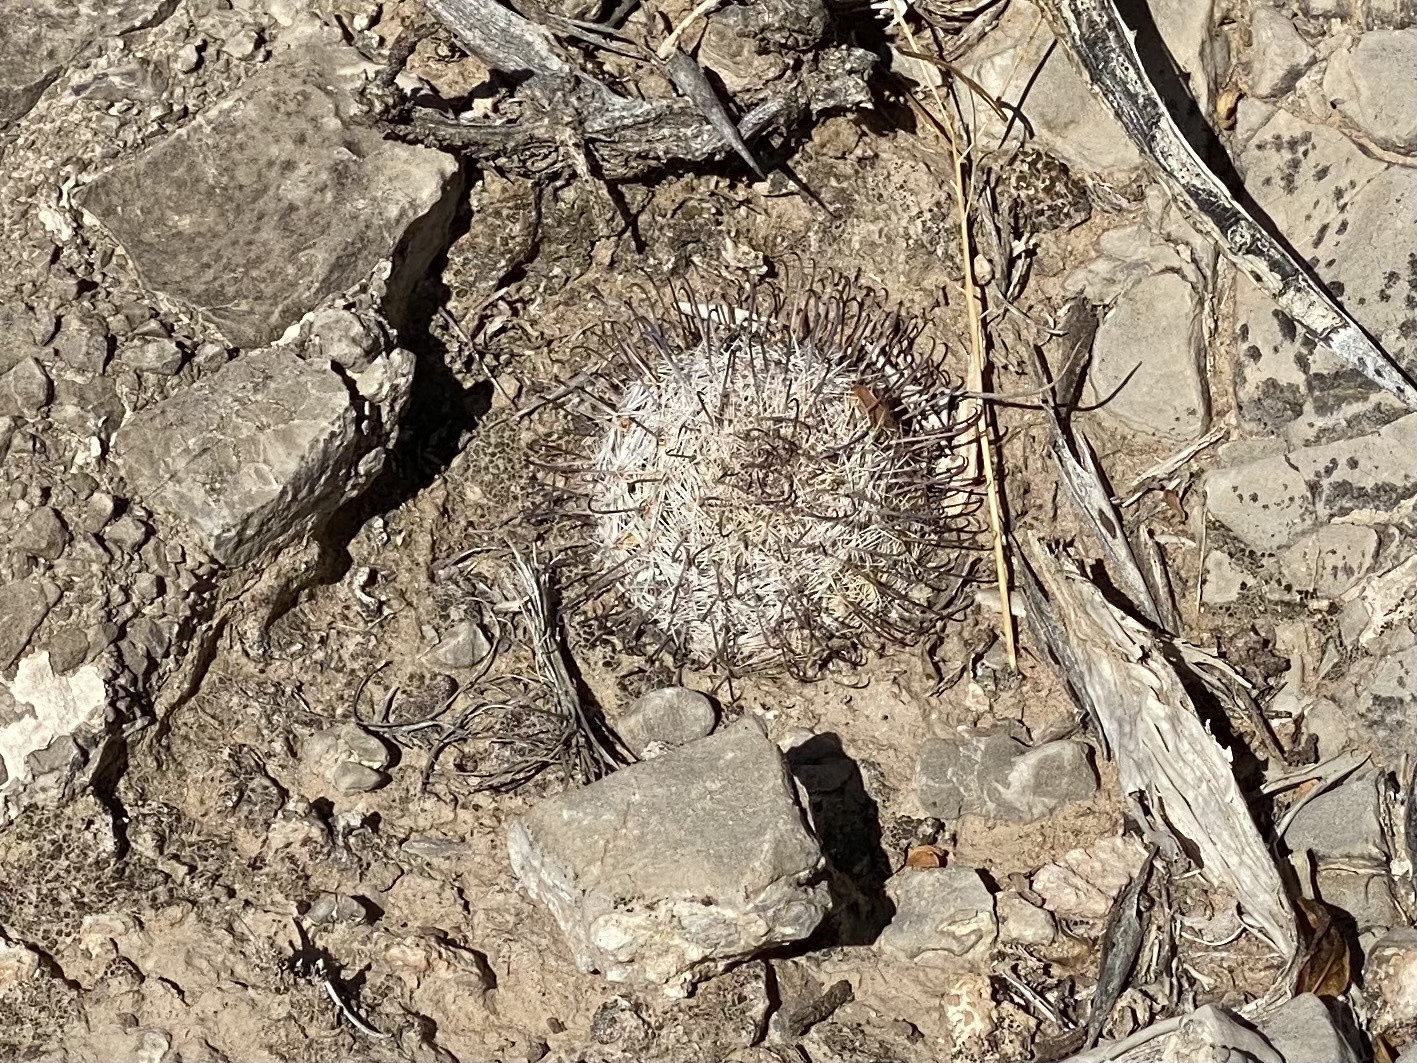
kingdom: Plantae
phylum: Tracheophyta
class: Magnoliopsida
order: Caryophyllales
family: Cactaceae
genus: Cochemiea
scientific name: Cochemiea grahamii
